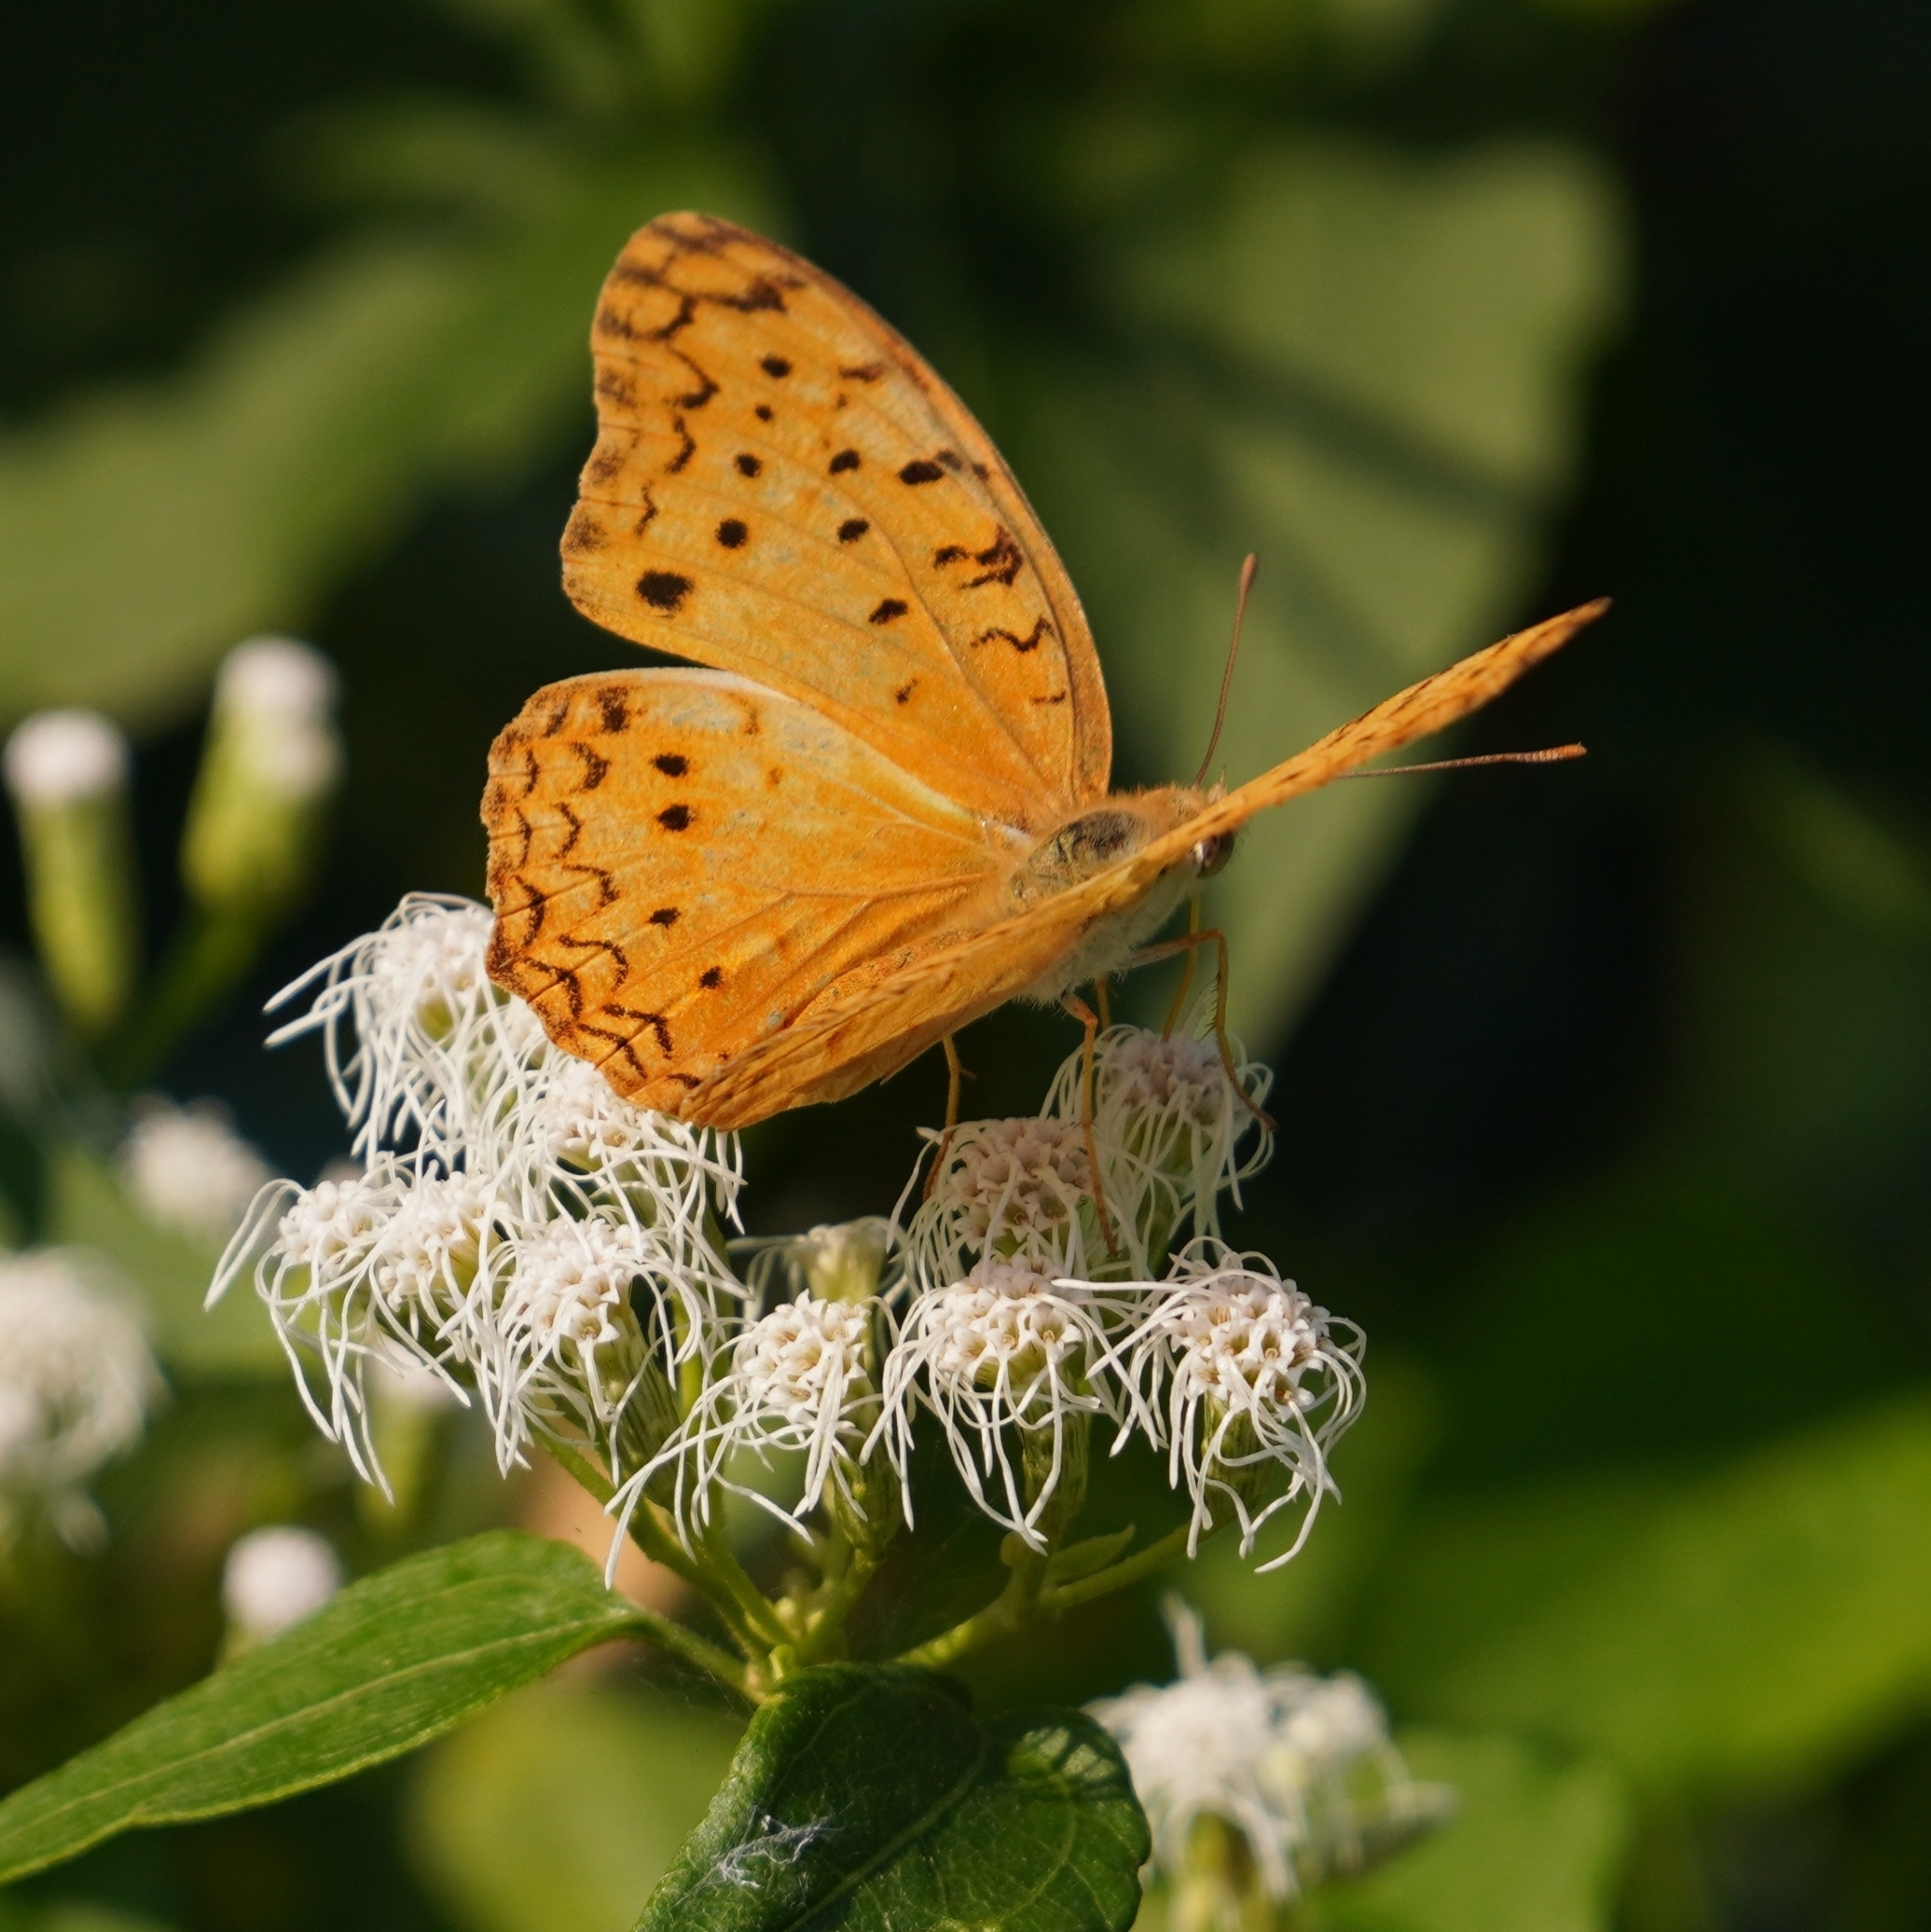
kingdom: Animalia
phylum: Arthropoda
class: Insecta
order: Lepidoptera
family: Nymphalidae
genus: Phalanta
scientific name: Phalanta phalantha
